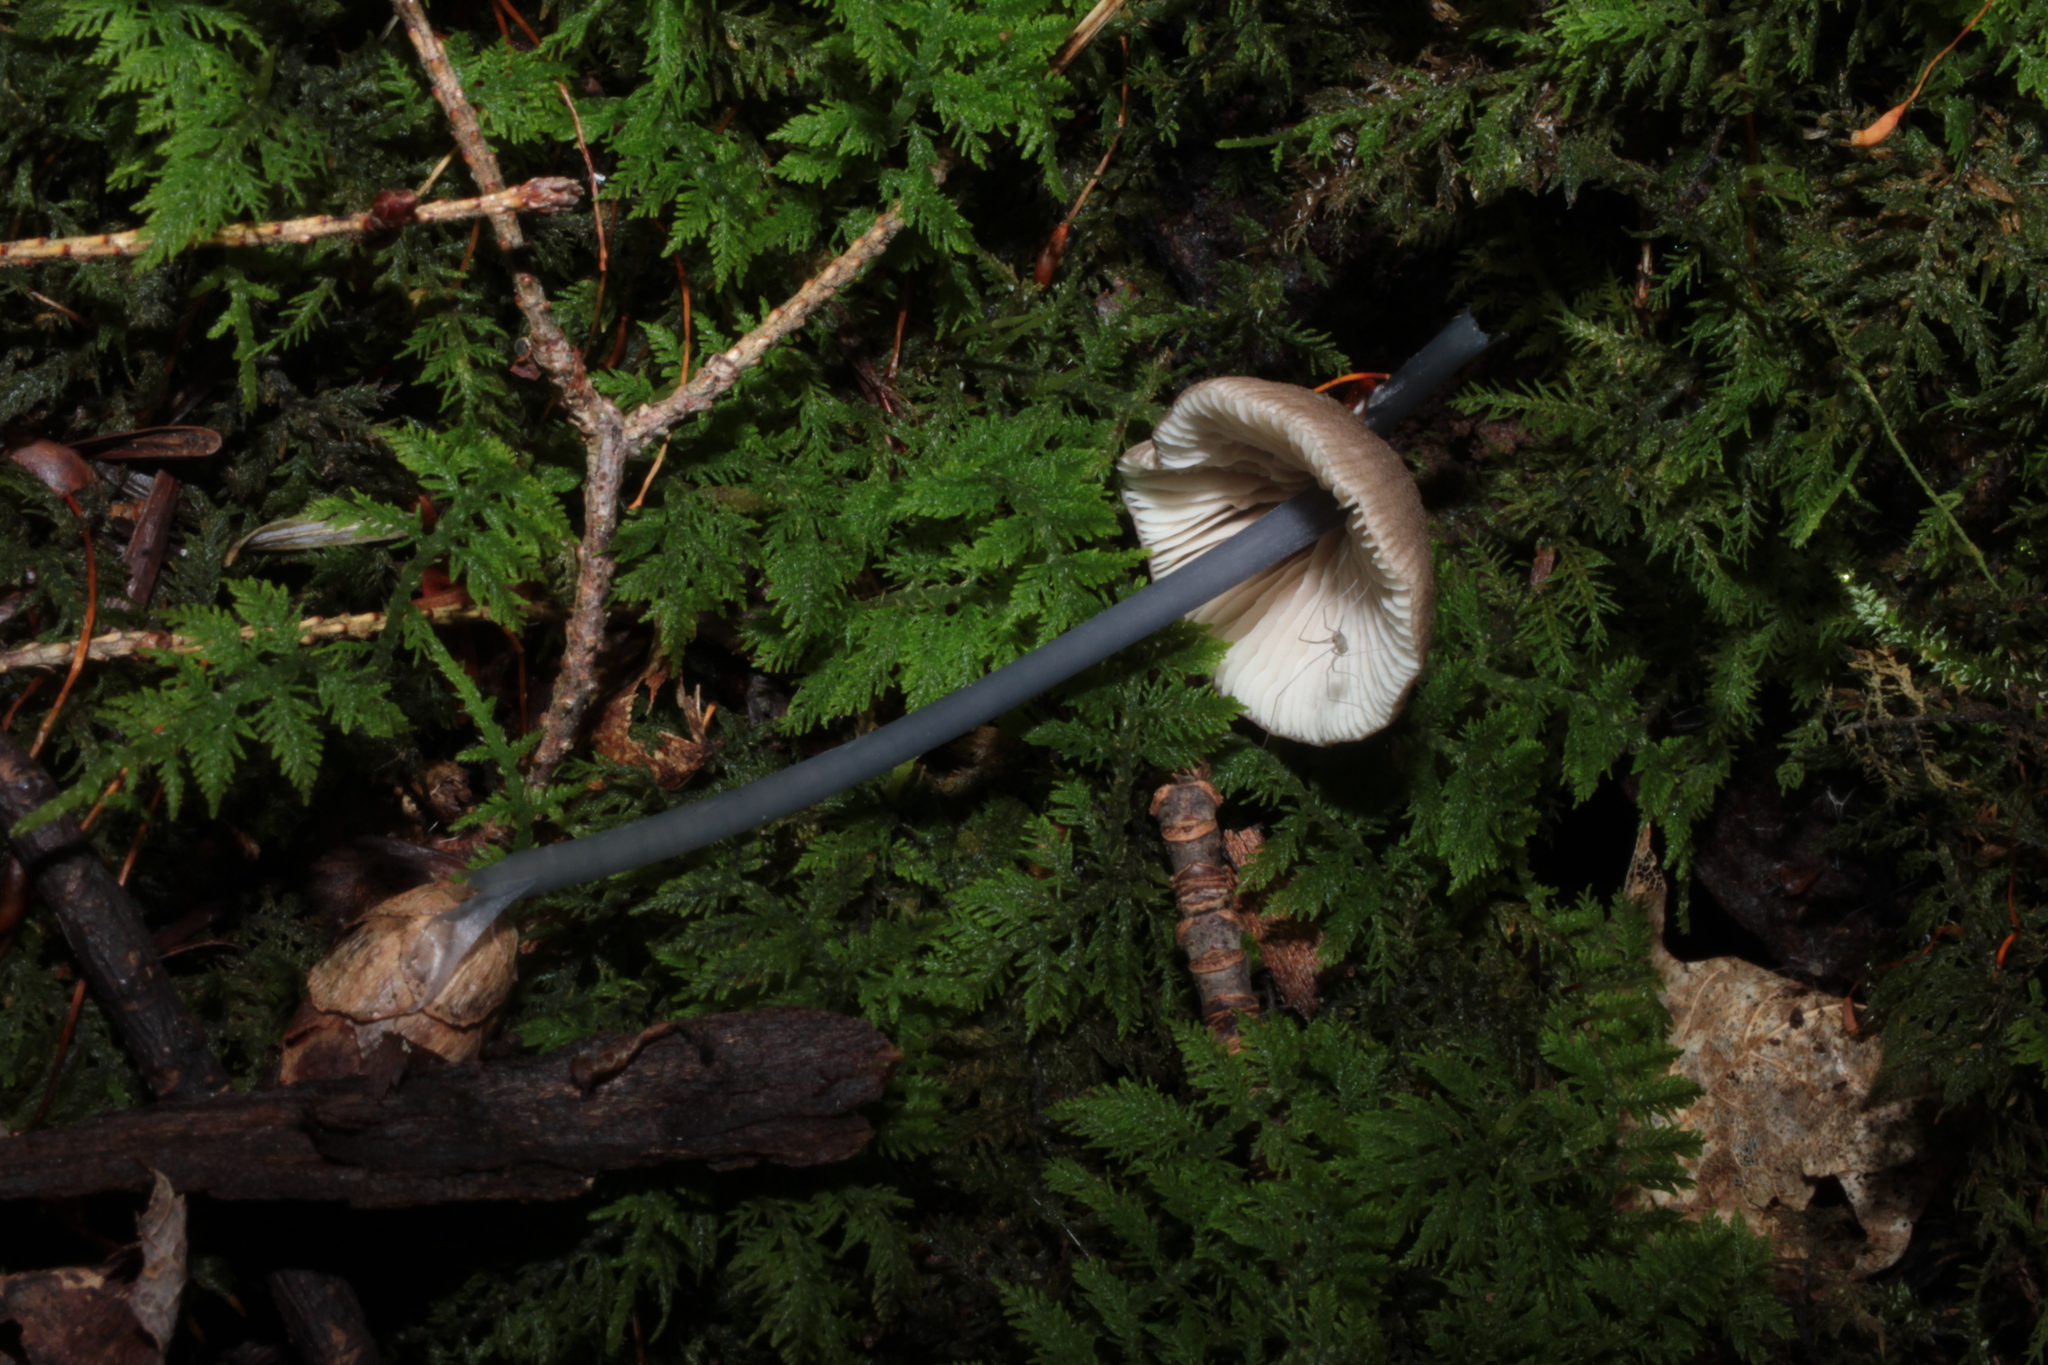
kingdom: Fungi
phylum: Basidiomycota
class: Agaricomycetes
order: Agaricales
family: Entolomataceae
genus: Entoloma
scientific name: Entoloma pulchripes
